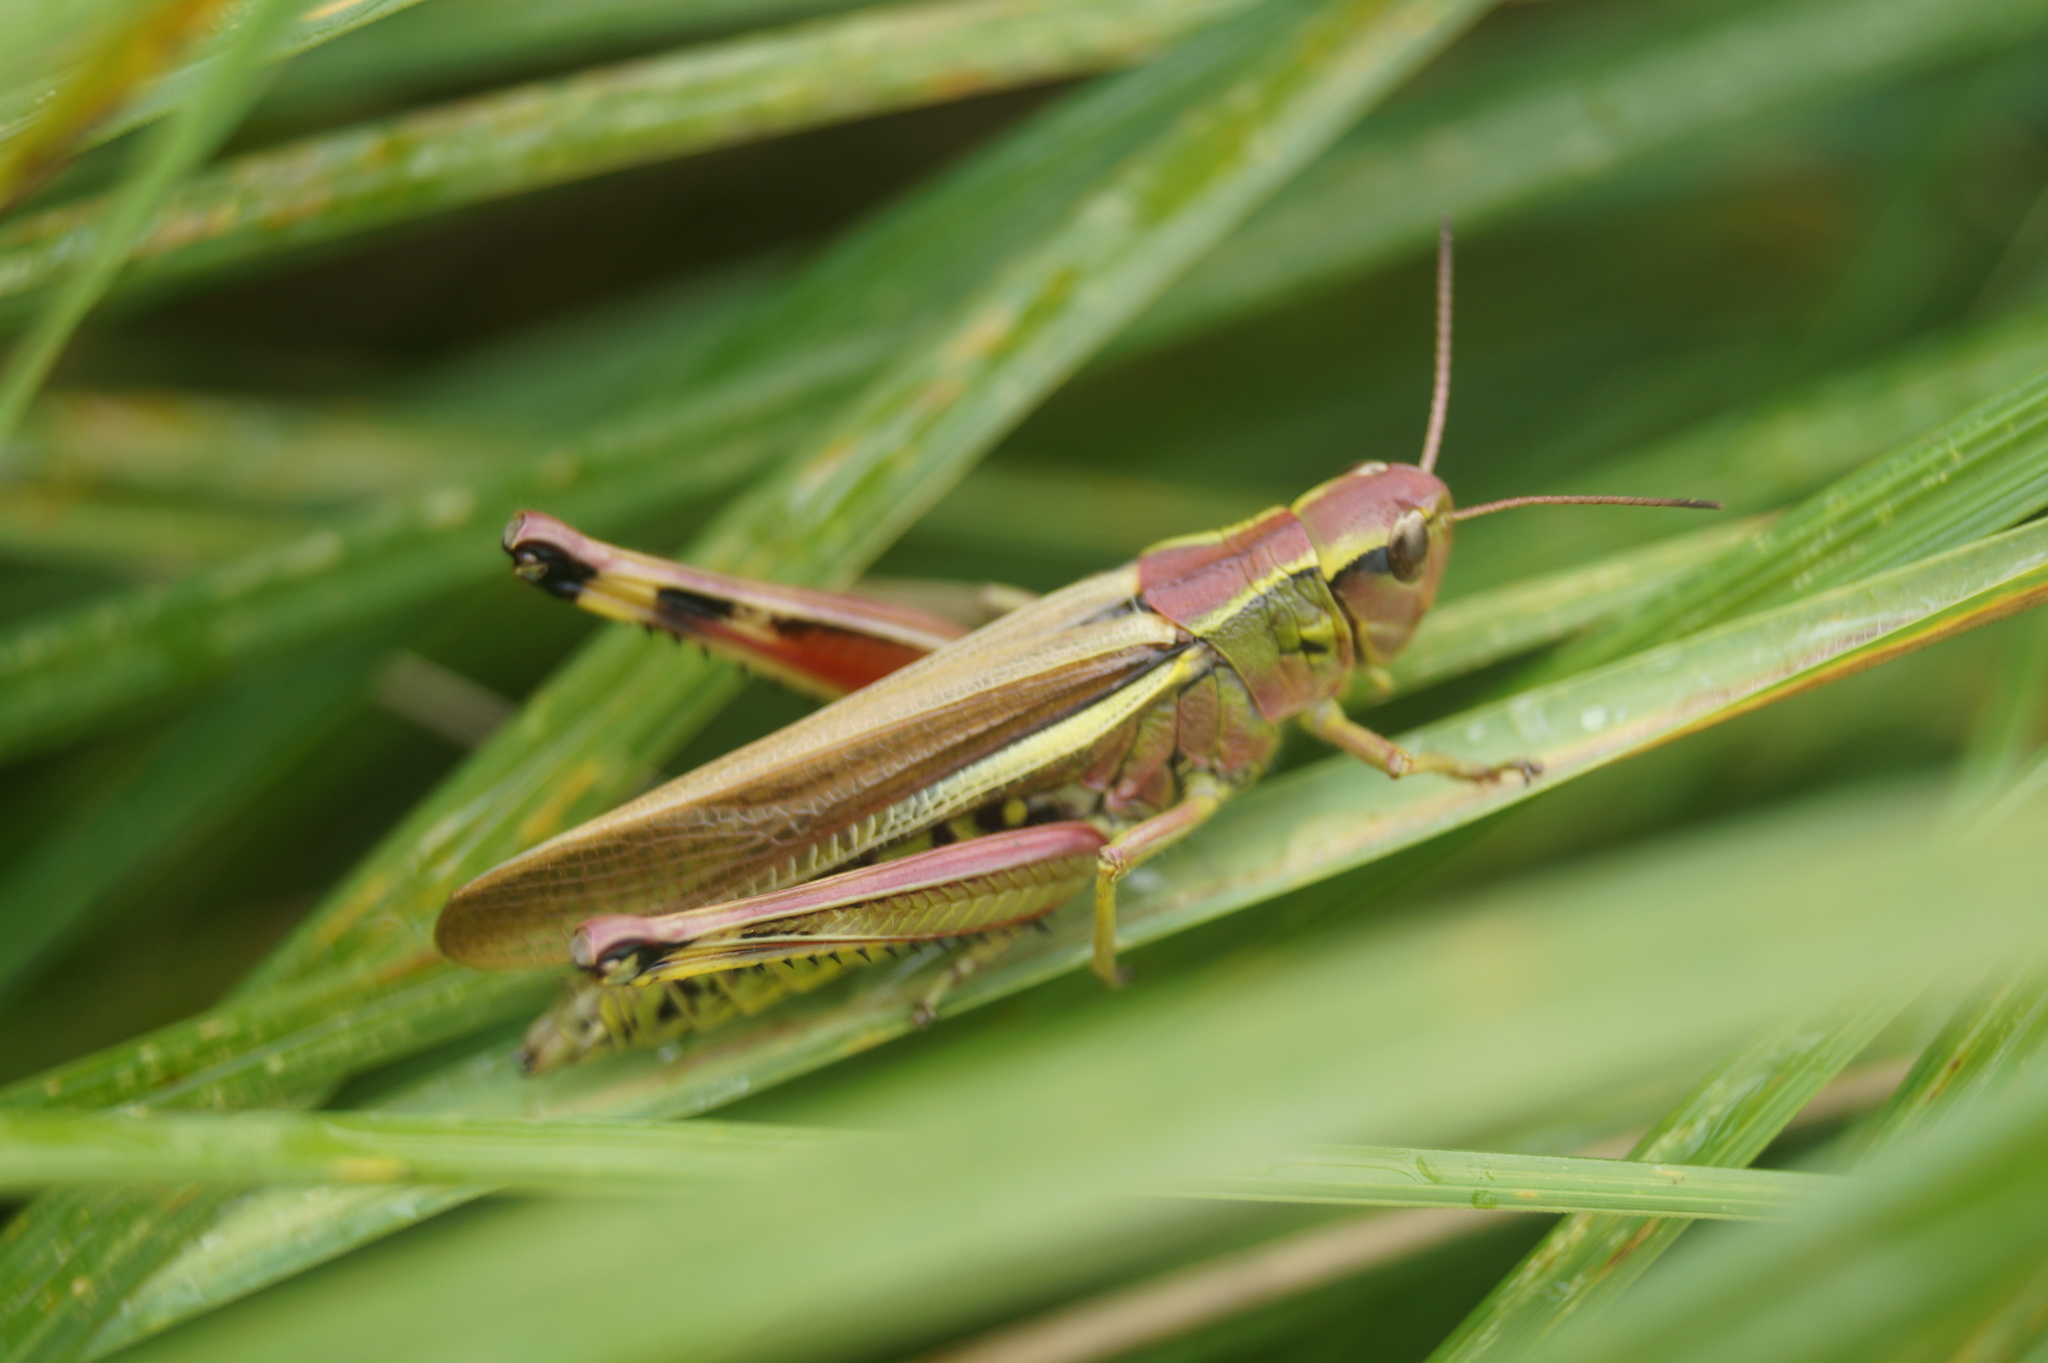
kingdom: Animalia
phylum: Arthropoda
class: Insecta
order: Orthoptera
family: Acrididae
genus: Stethophyma
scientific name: Stethophyma grossum
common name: Large marsh grasshopper
